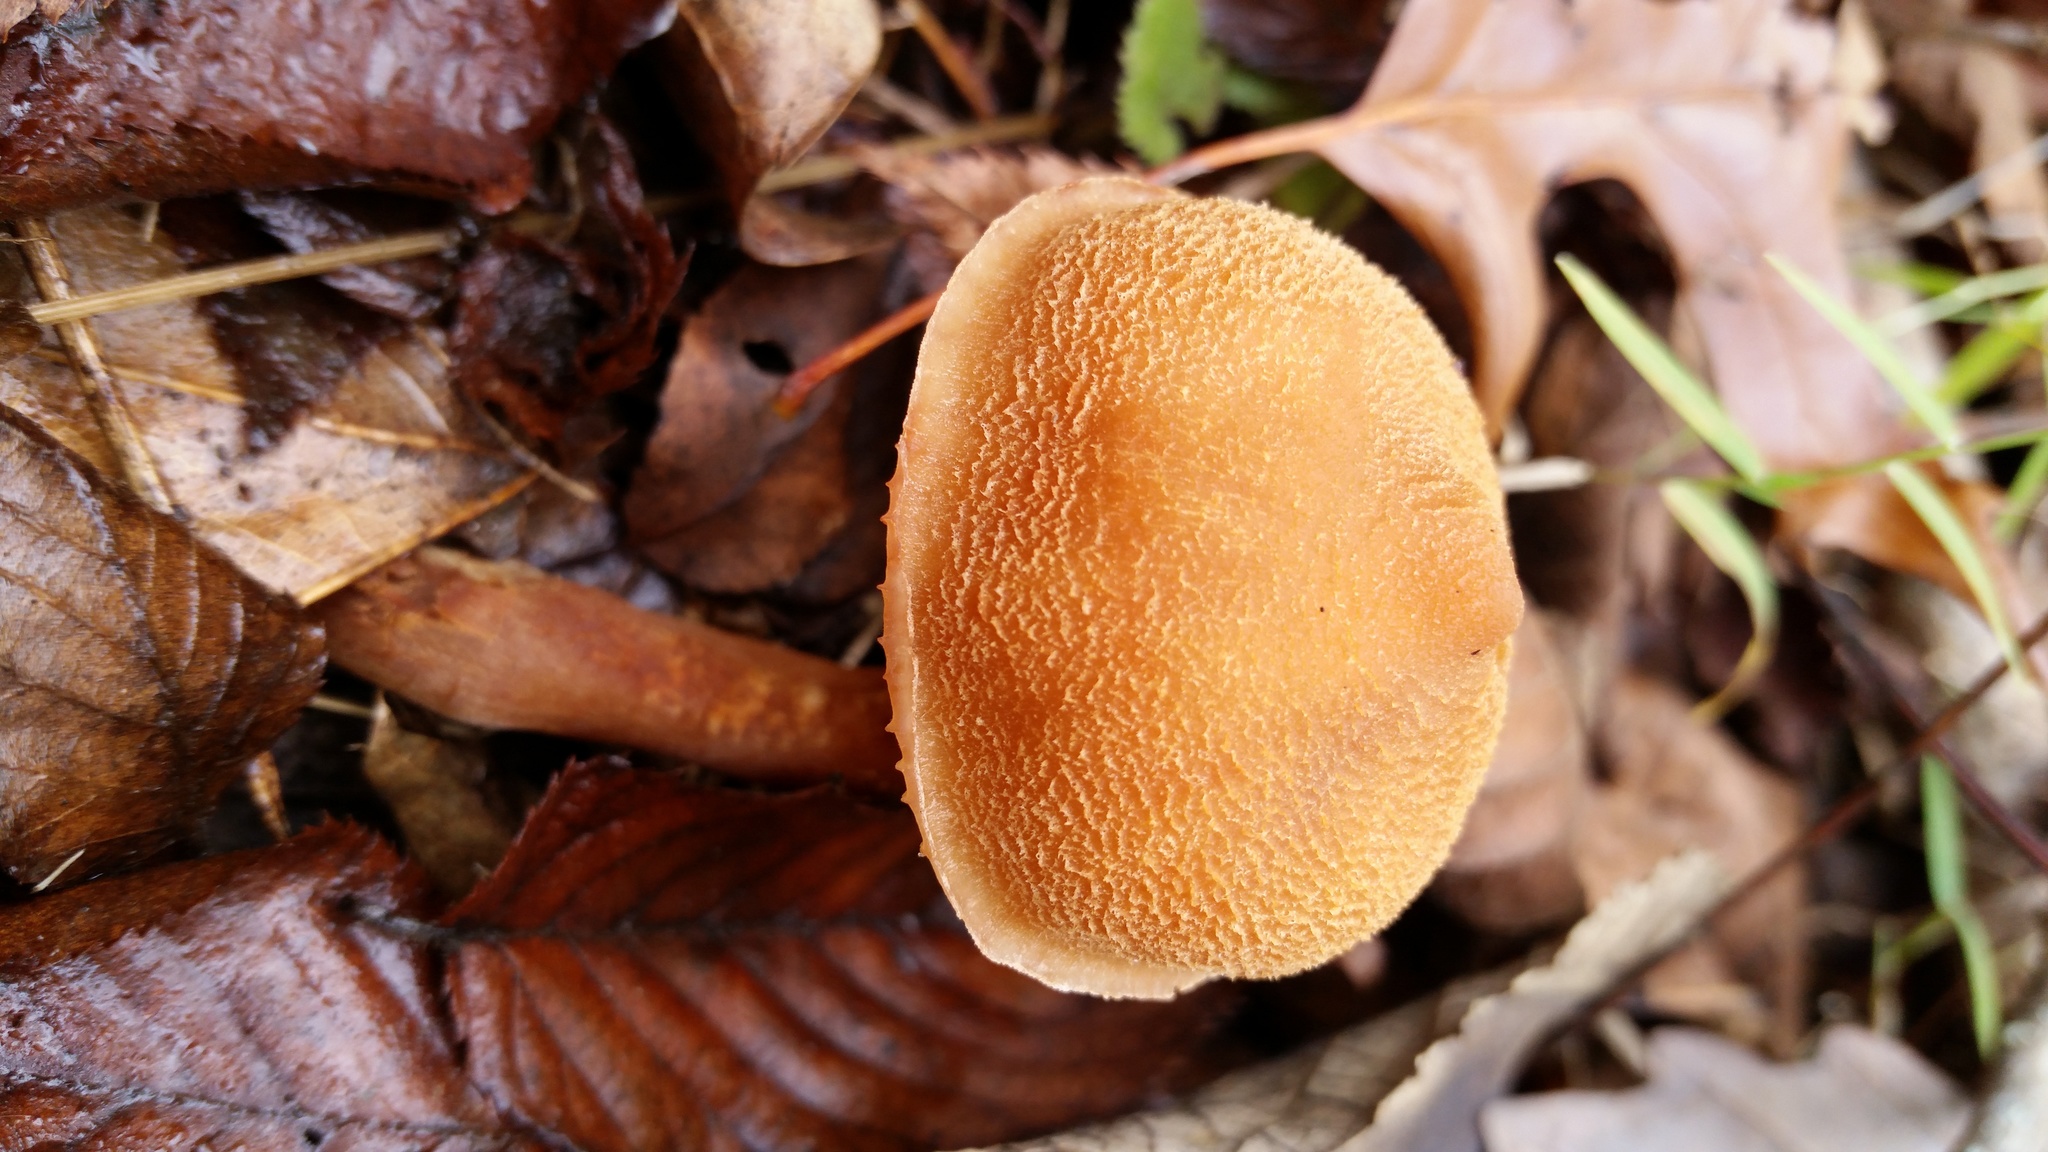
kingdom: Fungi
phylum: Basidiomycota
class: Agaricomycetes
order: Agaricales
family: Cortinariaceae
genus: Cortinarius
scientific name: Cortinarius
